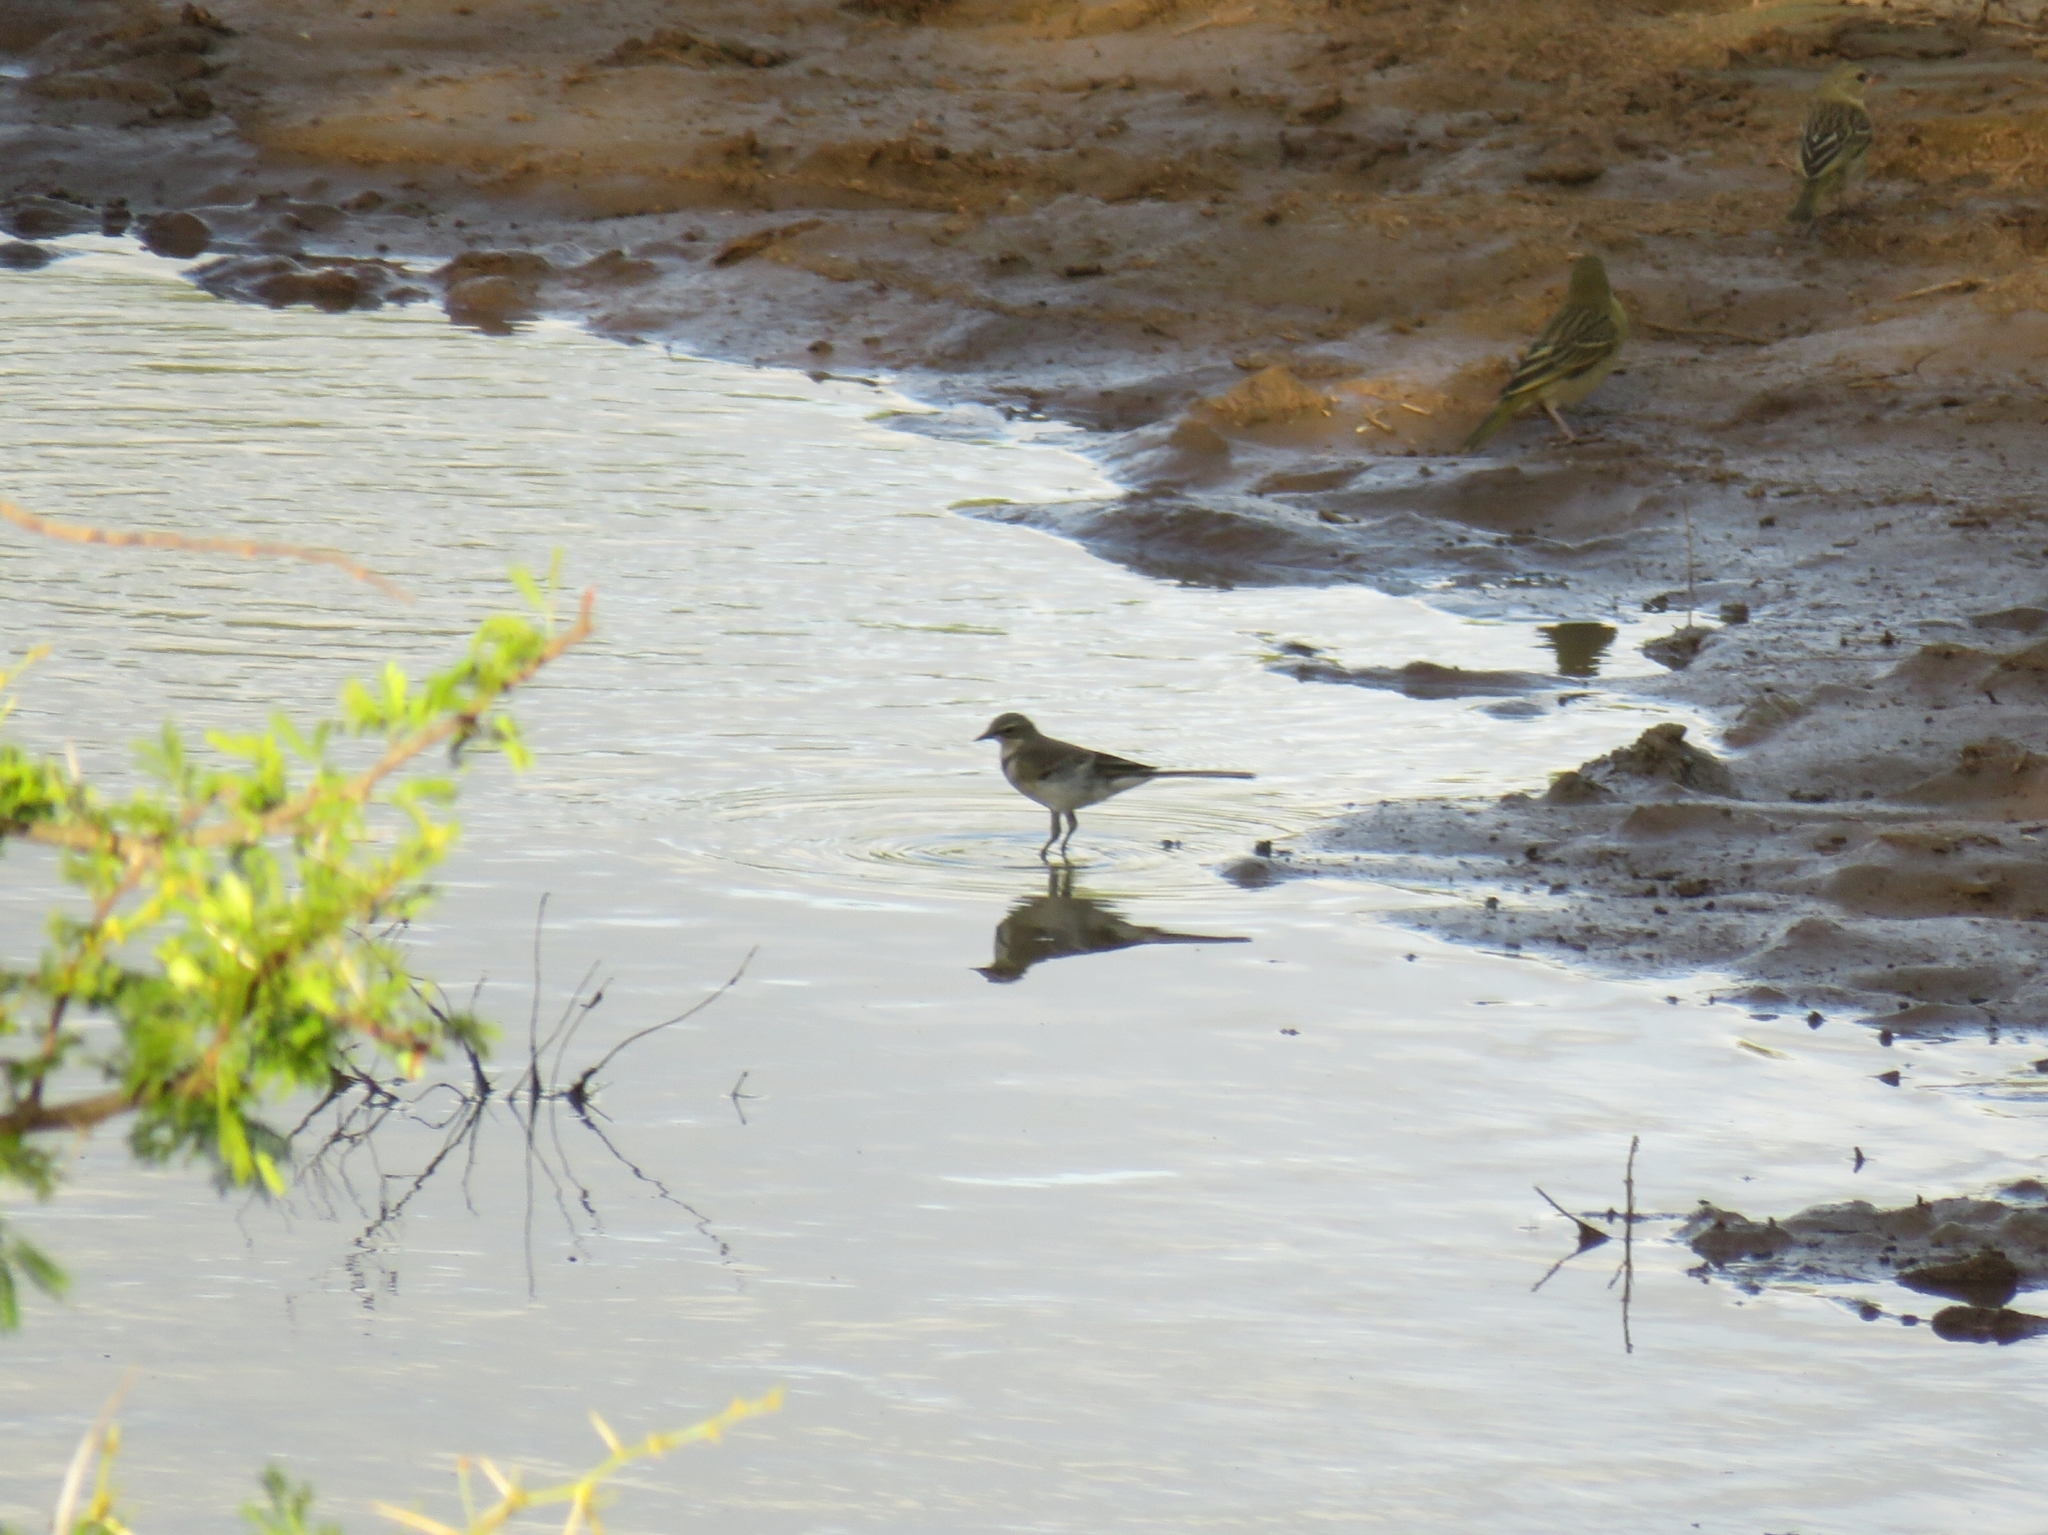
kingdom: Animalia
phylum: Chordata
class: Aves
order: Passeriformes
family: Motacillidae
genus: Motacilla
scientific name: Motacilla capensis
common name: Cape wagtail
